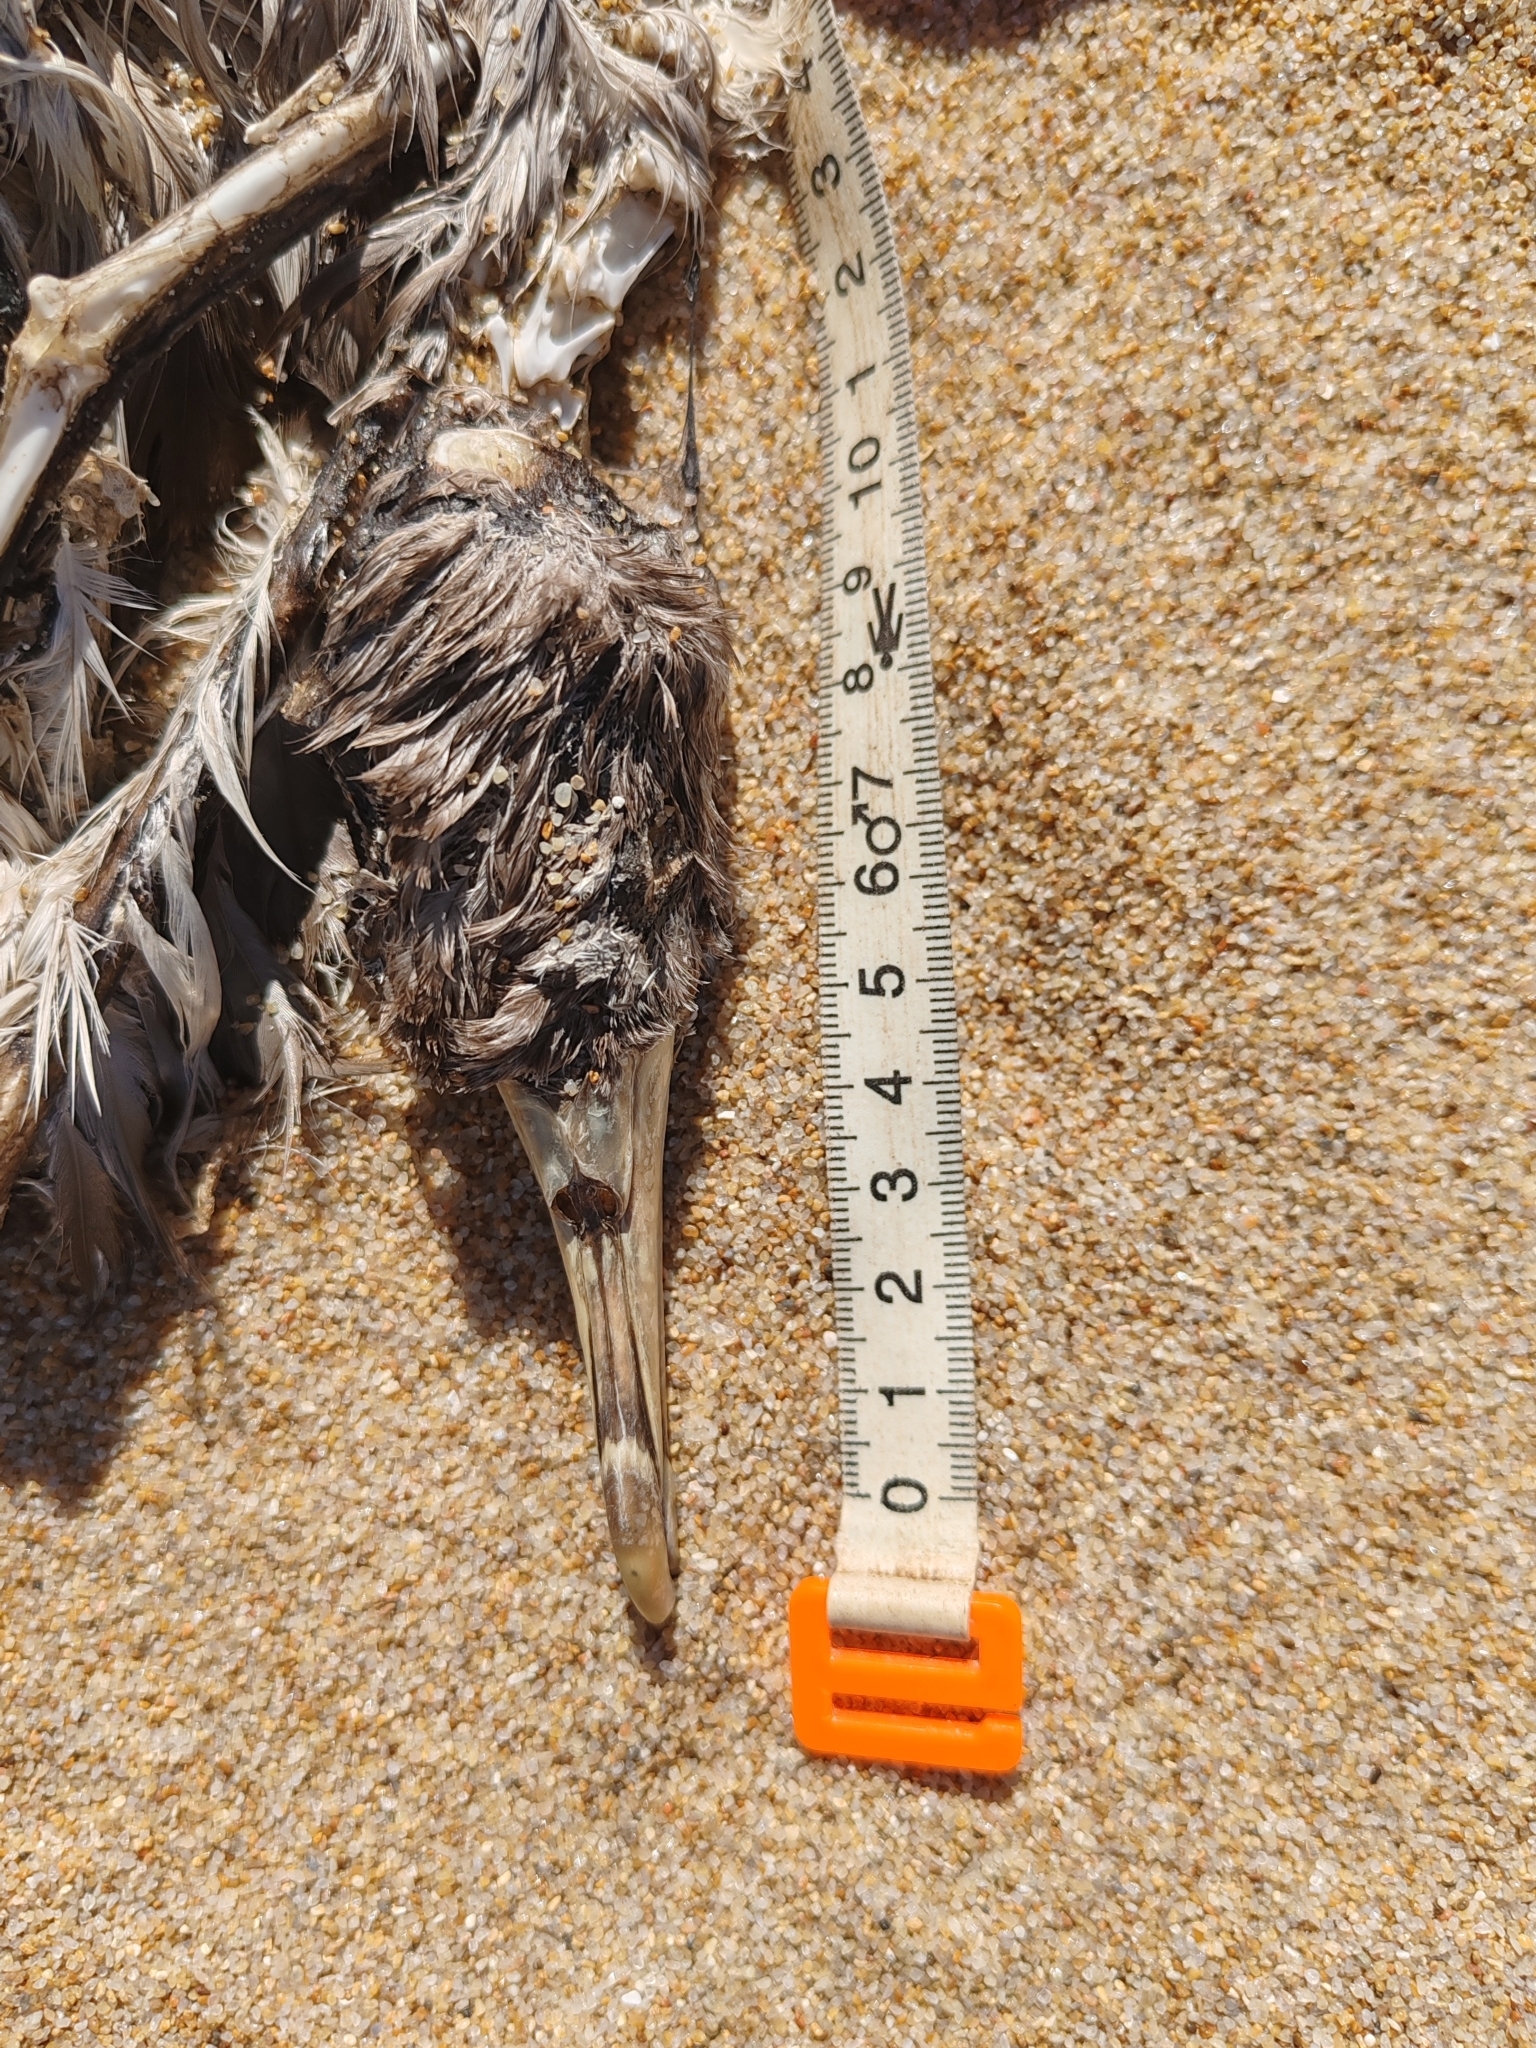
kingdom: Animalia
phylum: Chordata
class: Aves
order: Procellariiformes
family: Procellariidae
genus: Calonectris
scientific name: Calonectris diomedea
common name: Cory's shearwater
